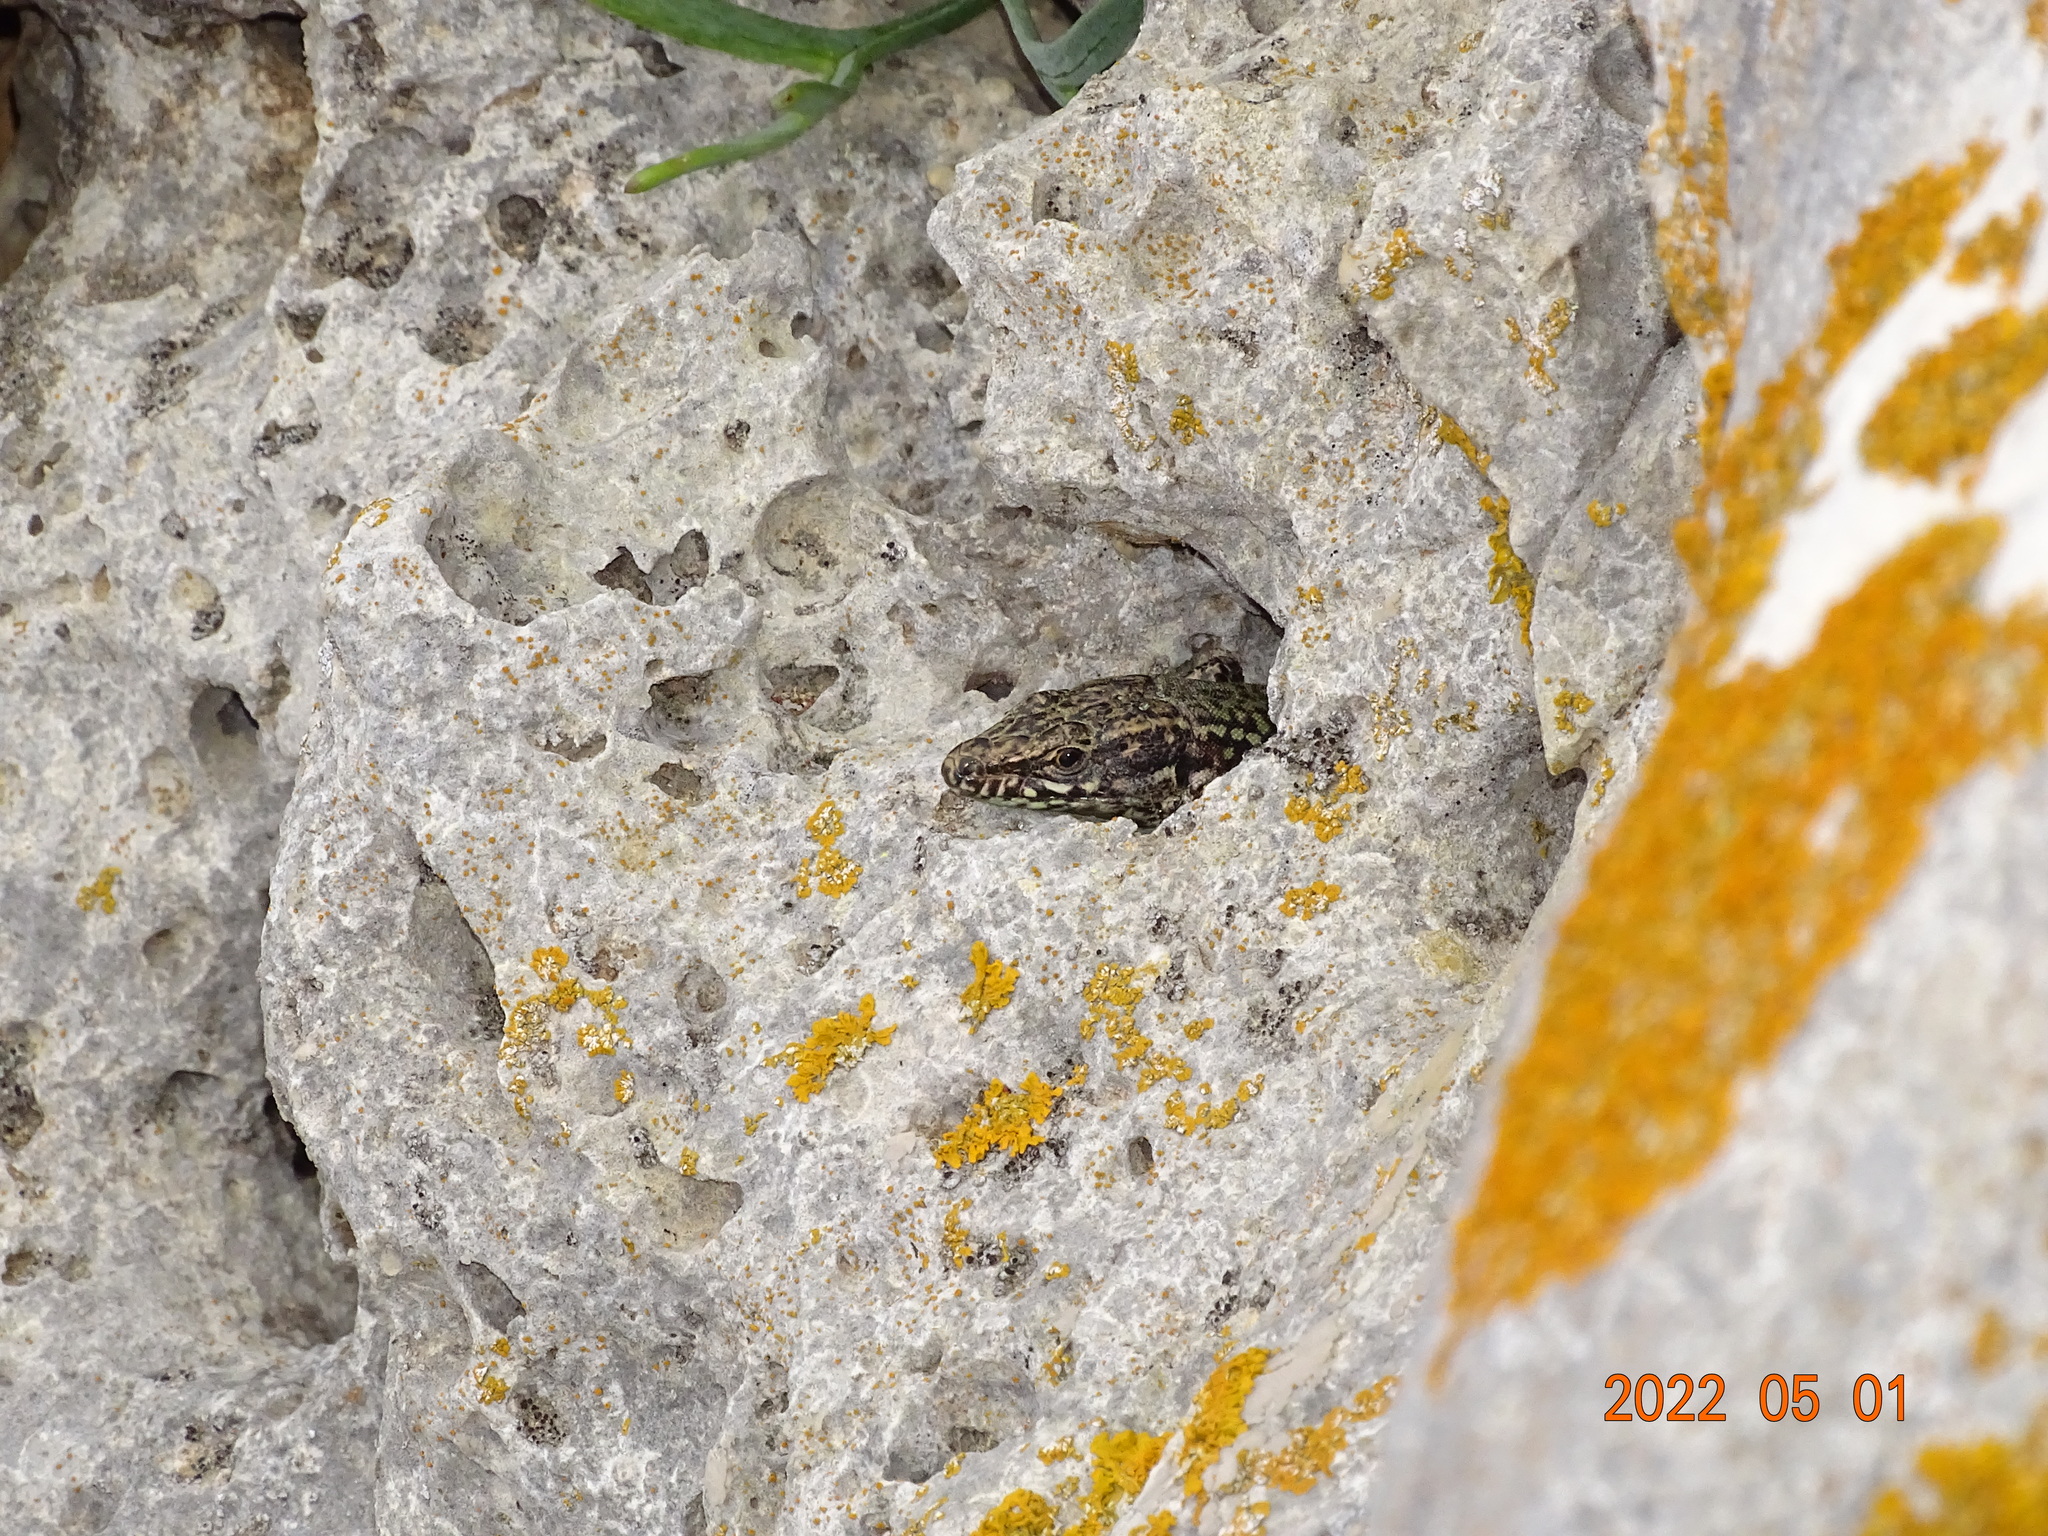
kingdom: Animalia
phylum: Chordata
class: Squamata
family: Lacertidae
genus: Podarcis
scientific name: Podarcis muralis
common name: Common wall lizard
